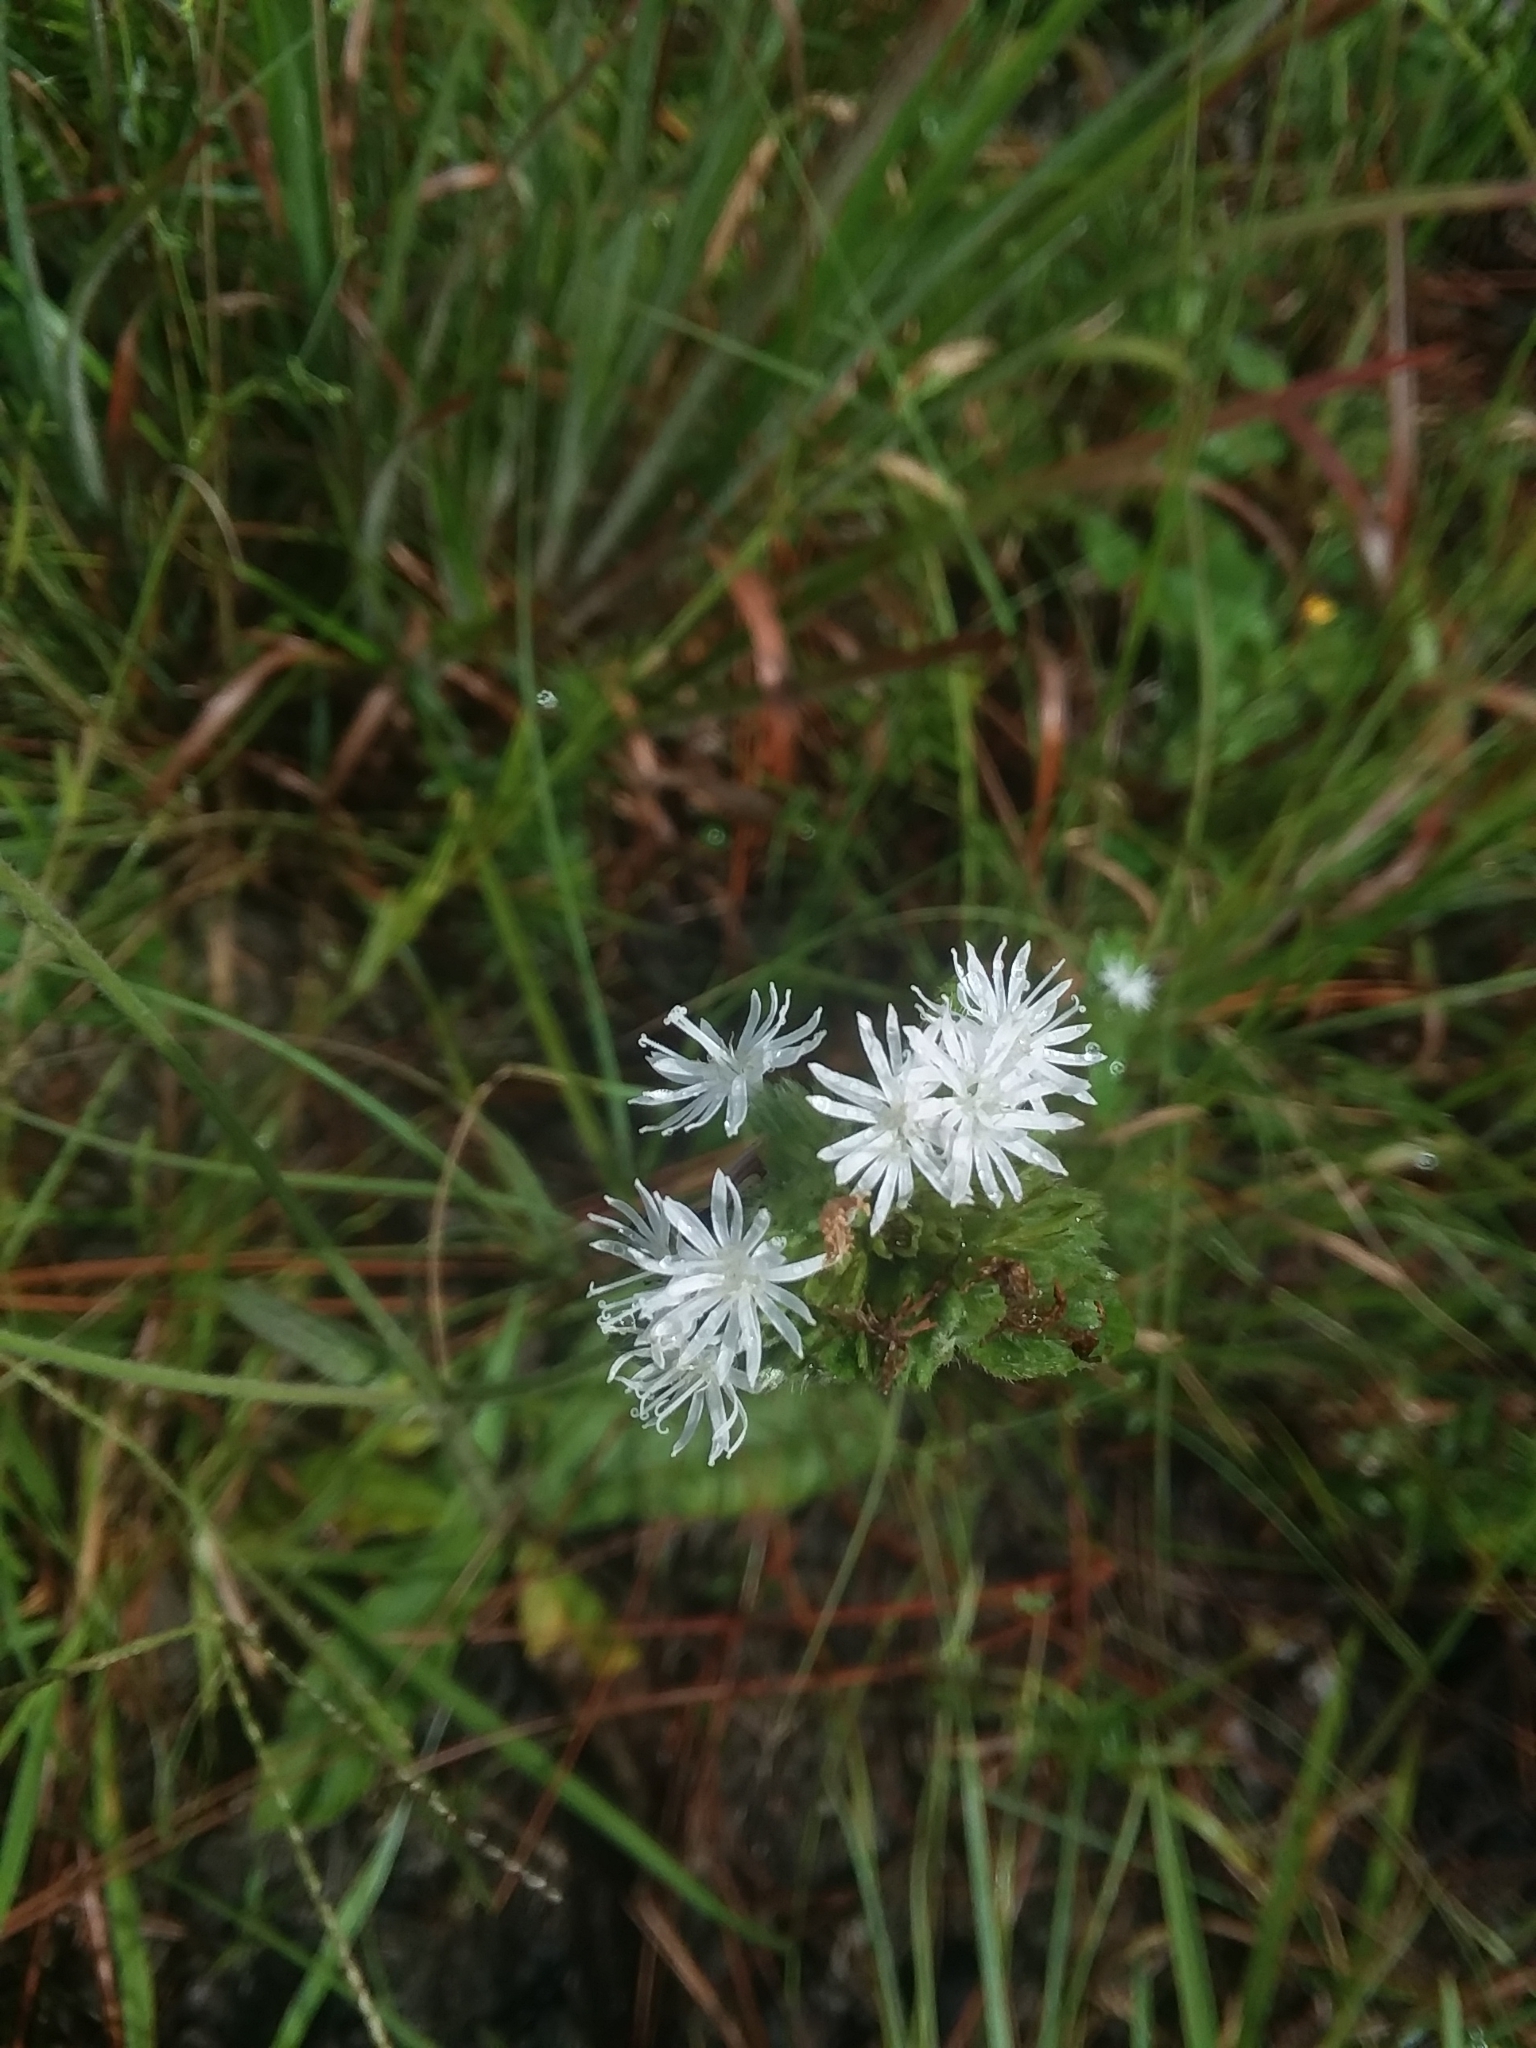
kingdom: Plantae
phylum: Tracheophyta
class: Magnoliopsida
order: Asterales
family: Asteraceae
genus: Elephantopus
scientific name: Elephantopus elatus
